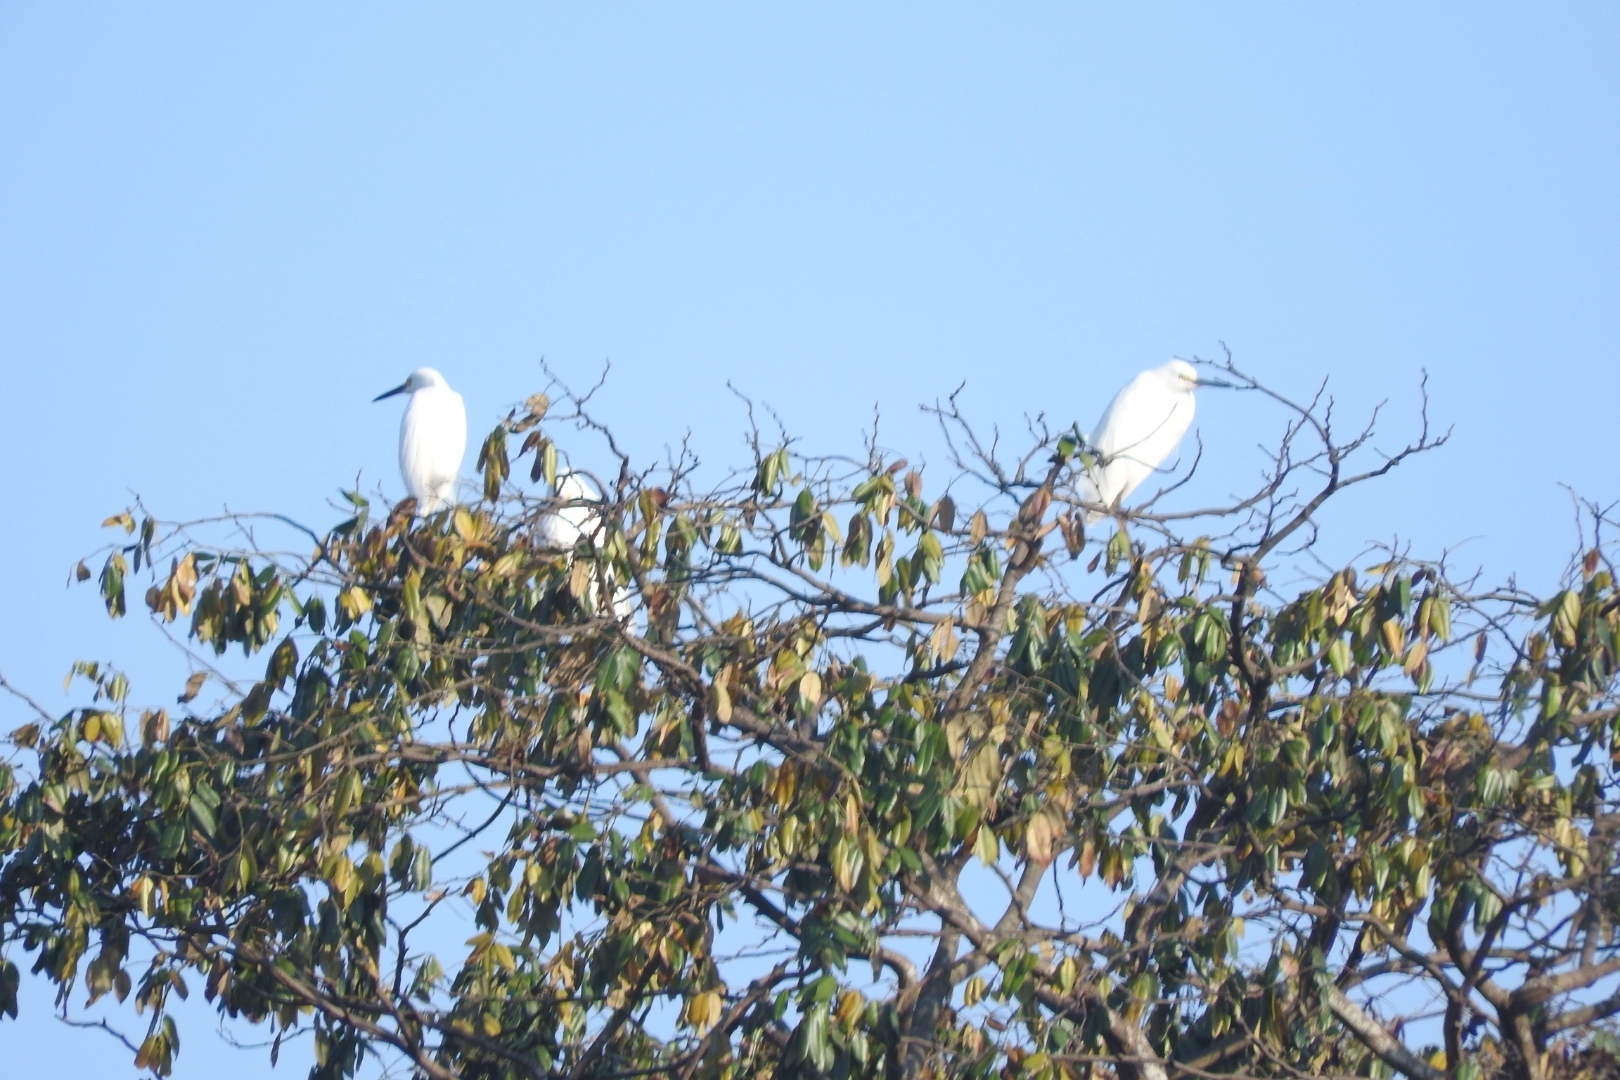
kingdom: Animalia
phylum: Chordata
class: Aves
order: Pelecaniformes
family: Ardeidae
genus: Egretta
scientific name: Egretta thula
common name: Snowy egret
